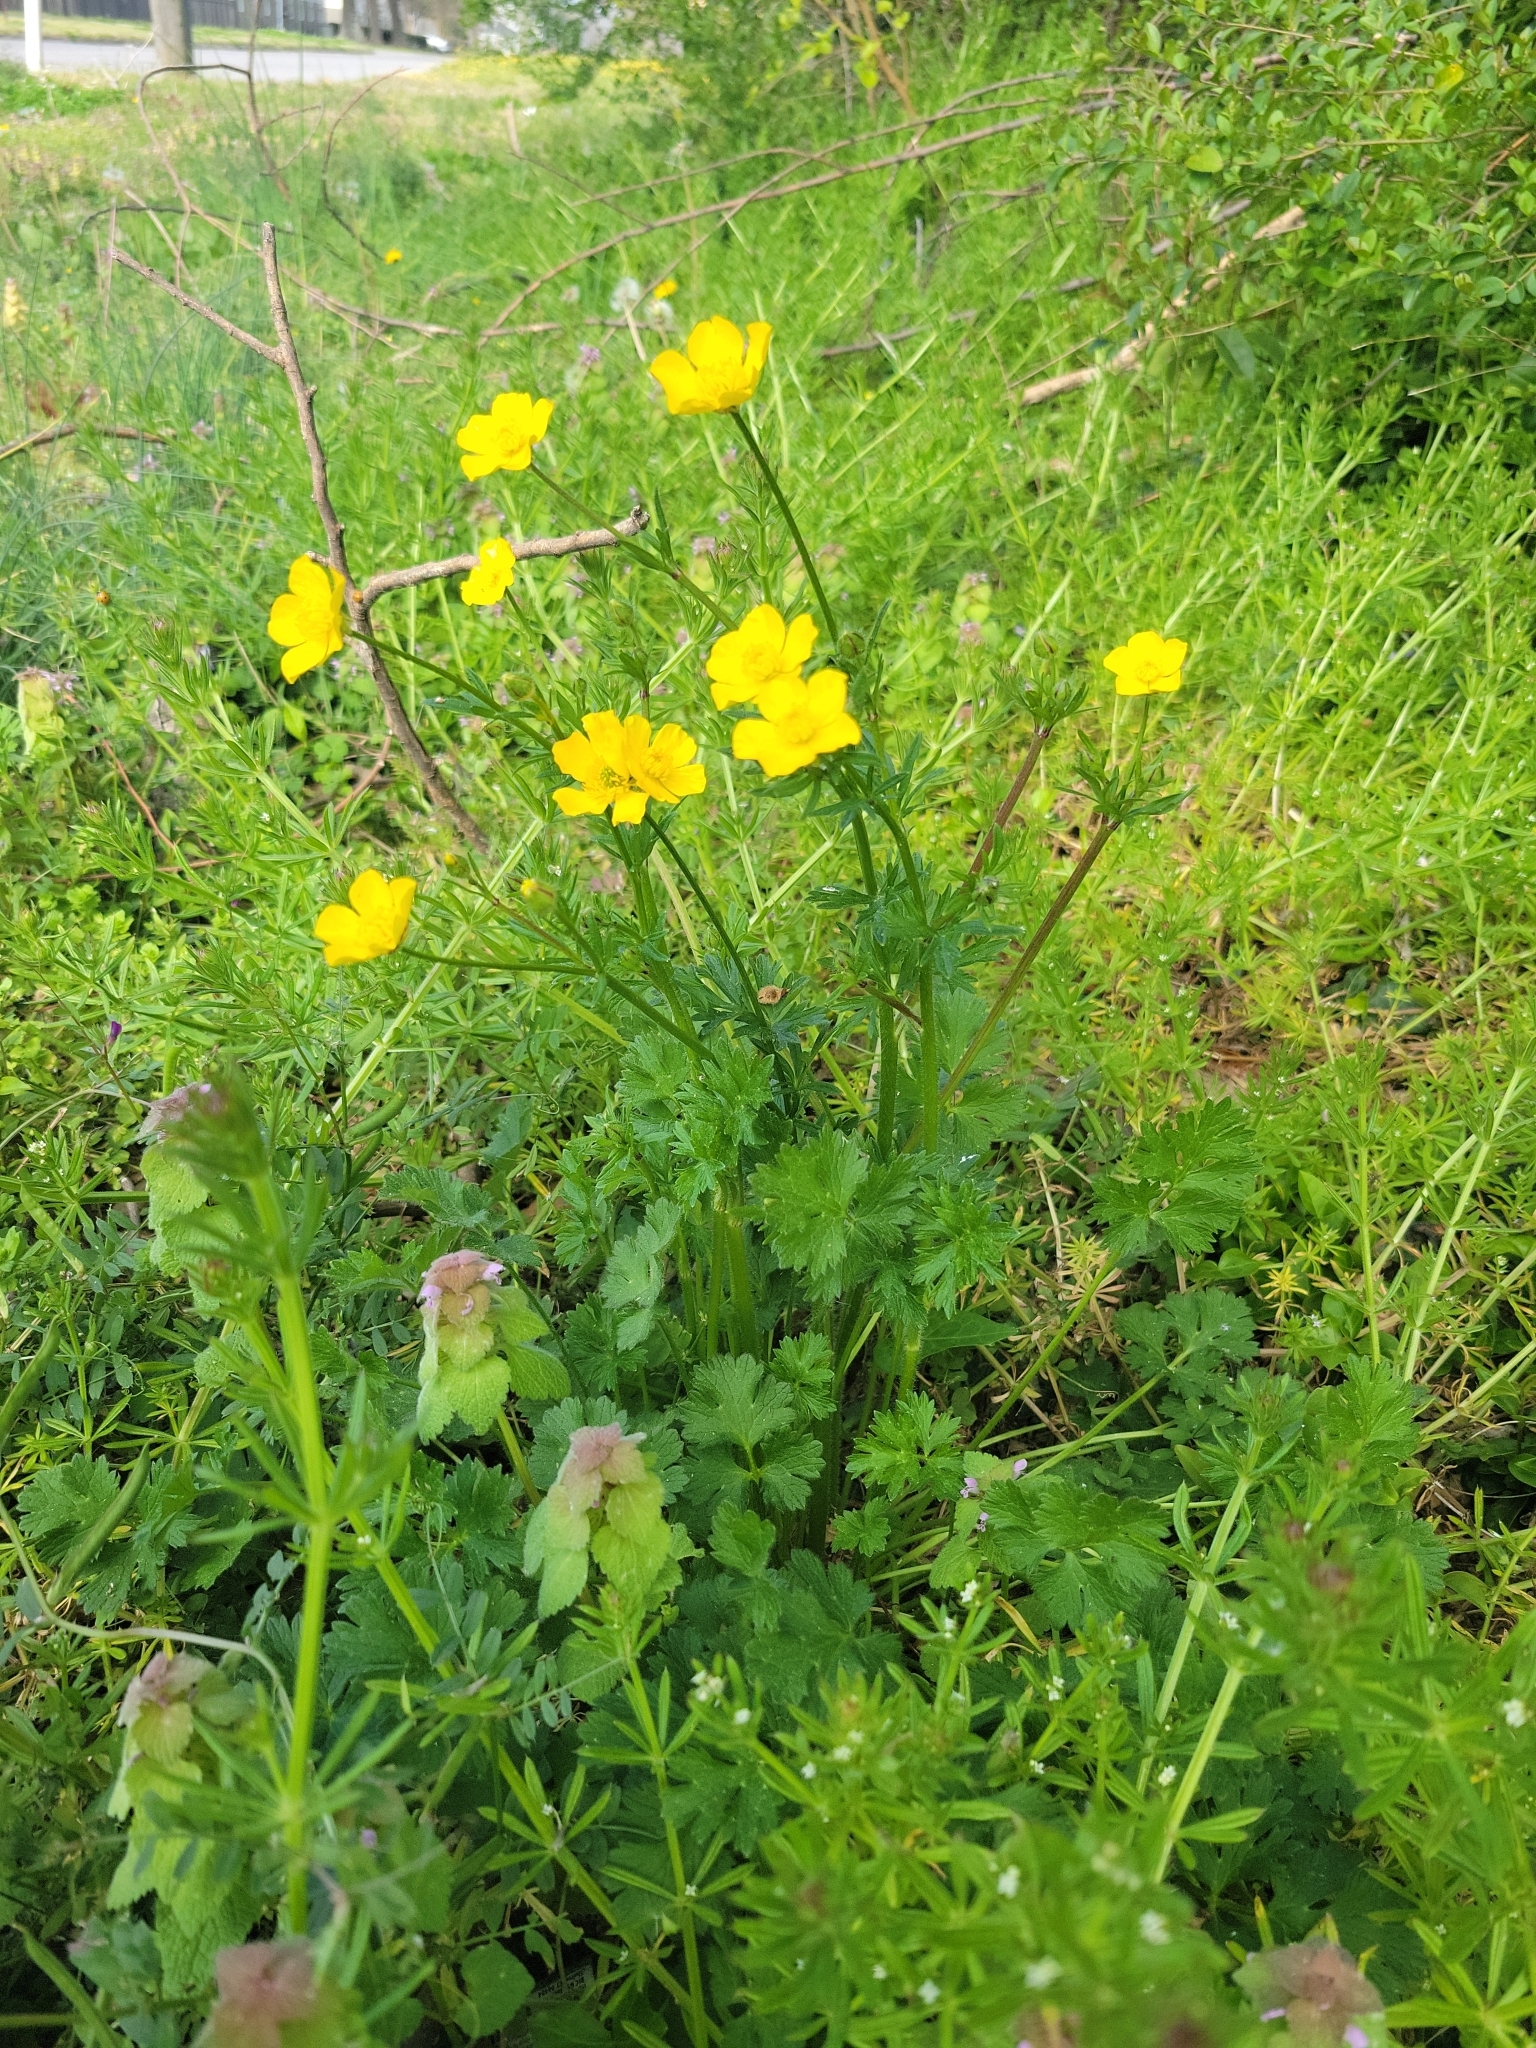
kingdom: Plantae
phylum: Tracheophyta
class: Magnoliopsida
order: Ranunculales
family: Ranunculaceae
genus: Ranunculus
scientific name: Ranunculus bulbosus
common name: Bulbous buttercup
